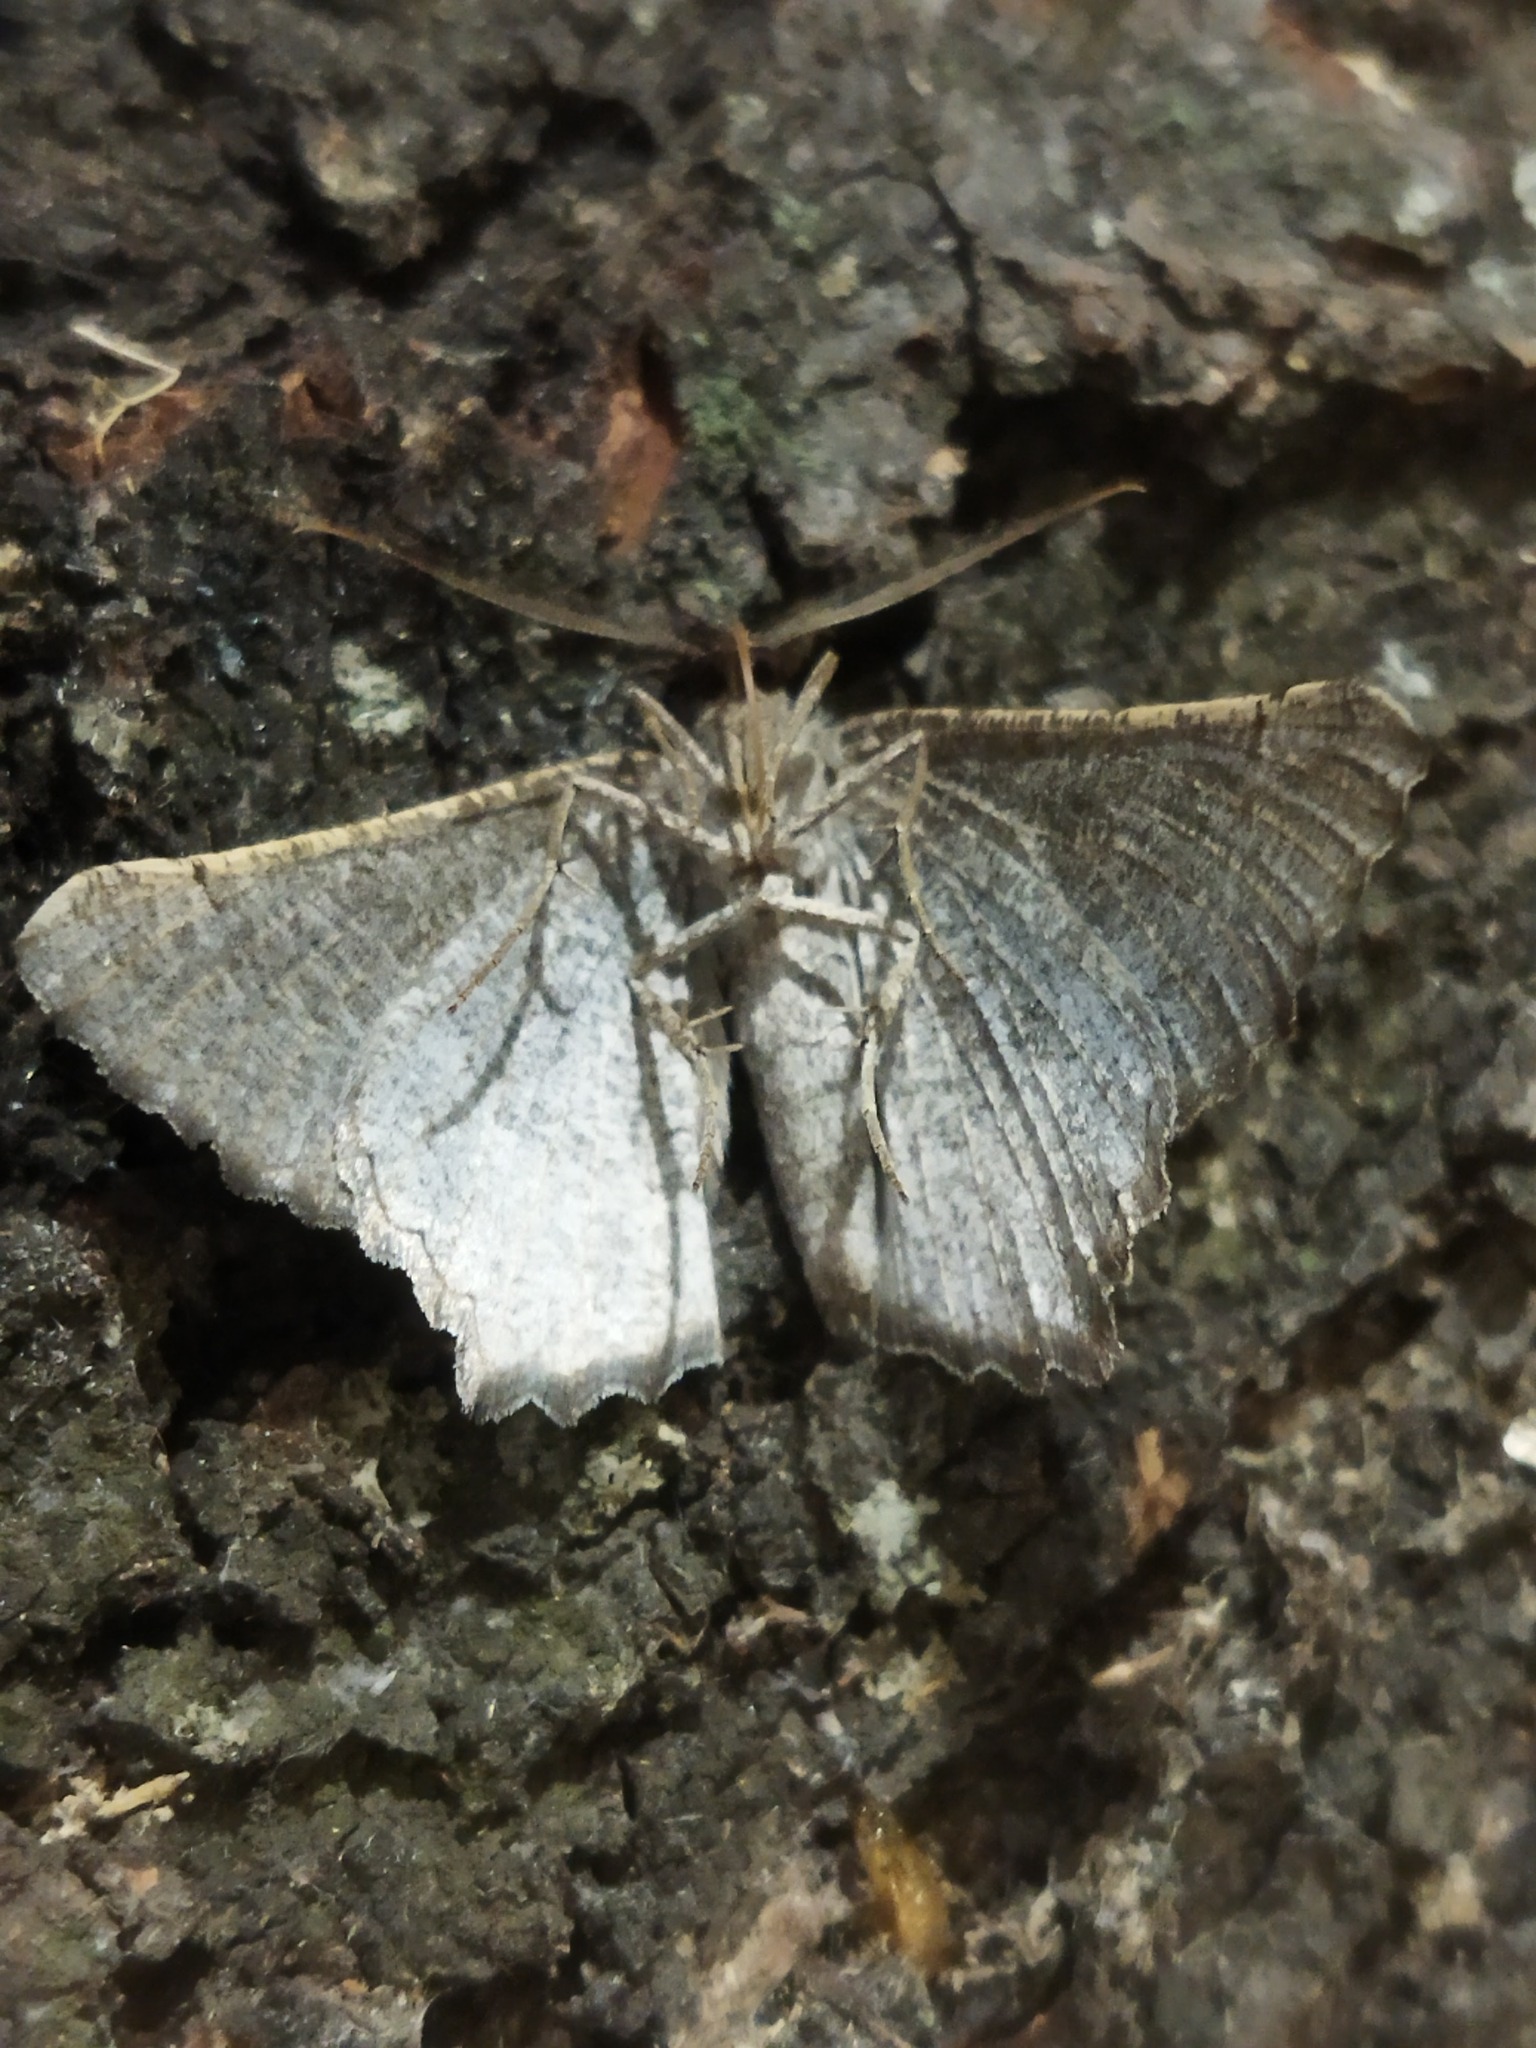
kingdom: Animalia
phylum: Arthropoda
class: Insecta
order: Lepidoptera
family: Geometridae
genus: Neognopharmia
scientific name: Neognopharmia stevenaria
